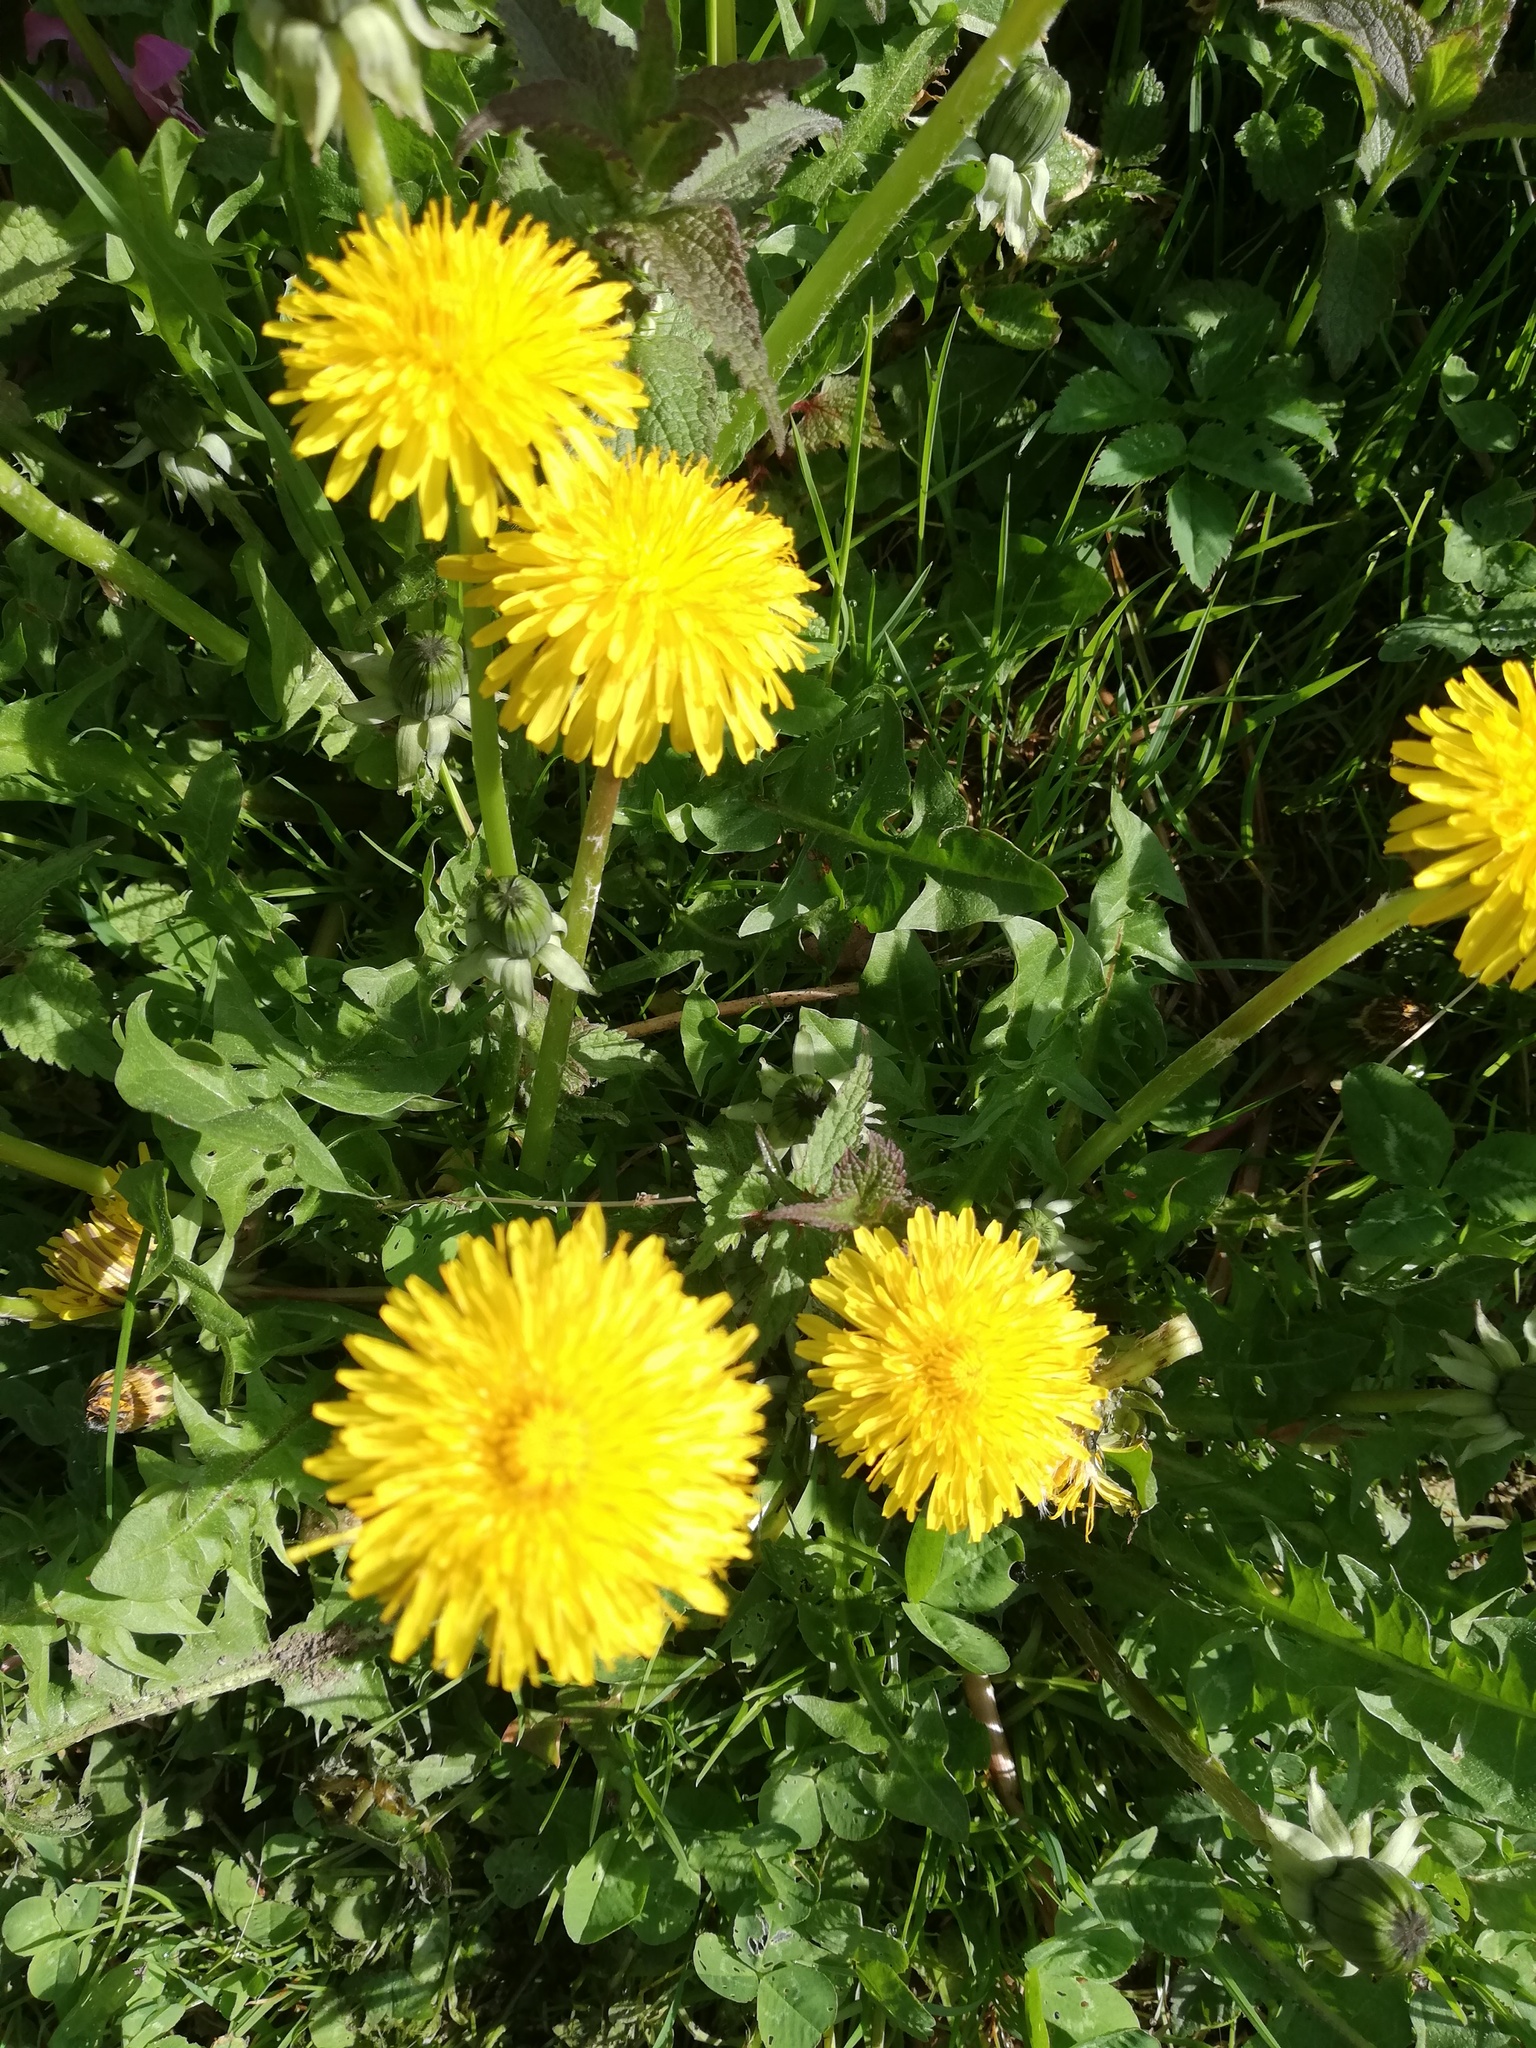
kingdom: Plantae
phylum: Tracheophyta
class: Magnoliopsida
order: Asterales
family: Asteraceae
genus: Taraxacum
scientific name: Taraxacum officinale
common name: Common dandelion
